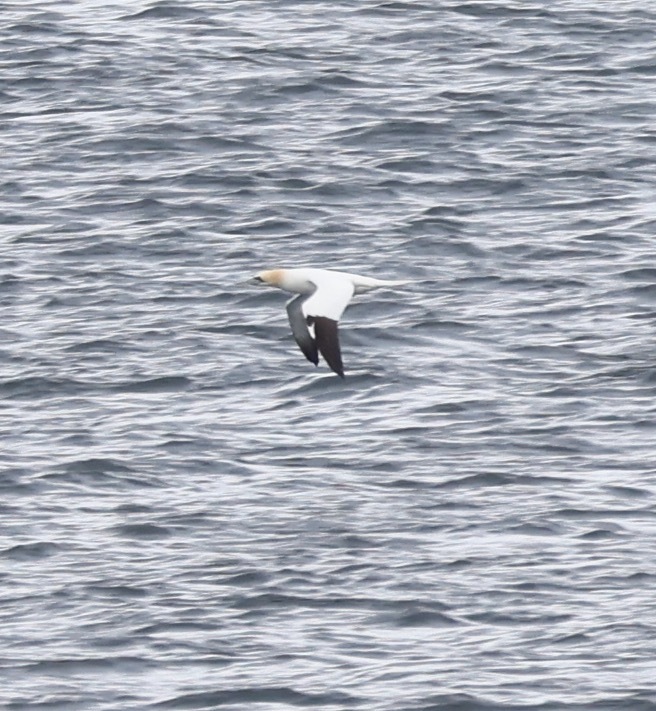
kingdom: Animalia
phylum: Chordata
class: Aves
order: Suliformes
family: Sulidae
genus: Morus
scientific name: Morus bassanus
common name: Northern gannet
